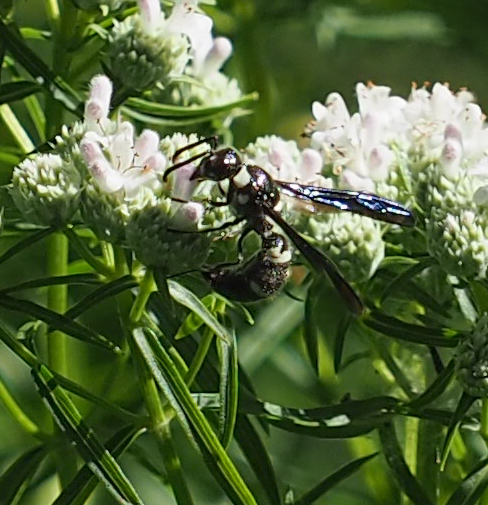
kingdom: Animalia
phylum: Arthropoda
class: Insecta
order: Hymenoptera
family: Eumenidae
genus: Pseudodynerus
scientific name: Pseudodynerus quadrisectus
